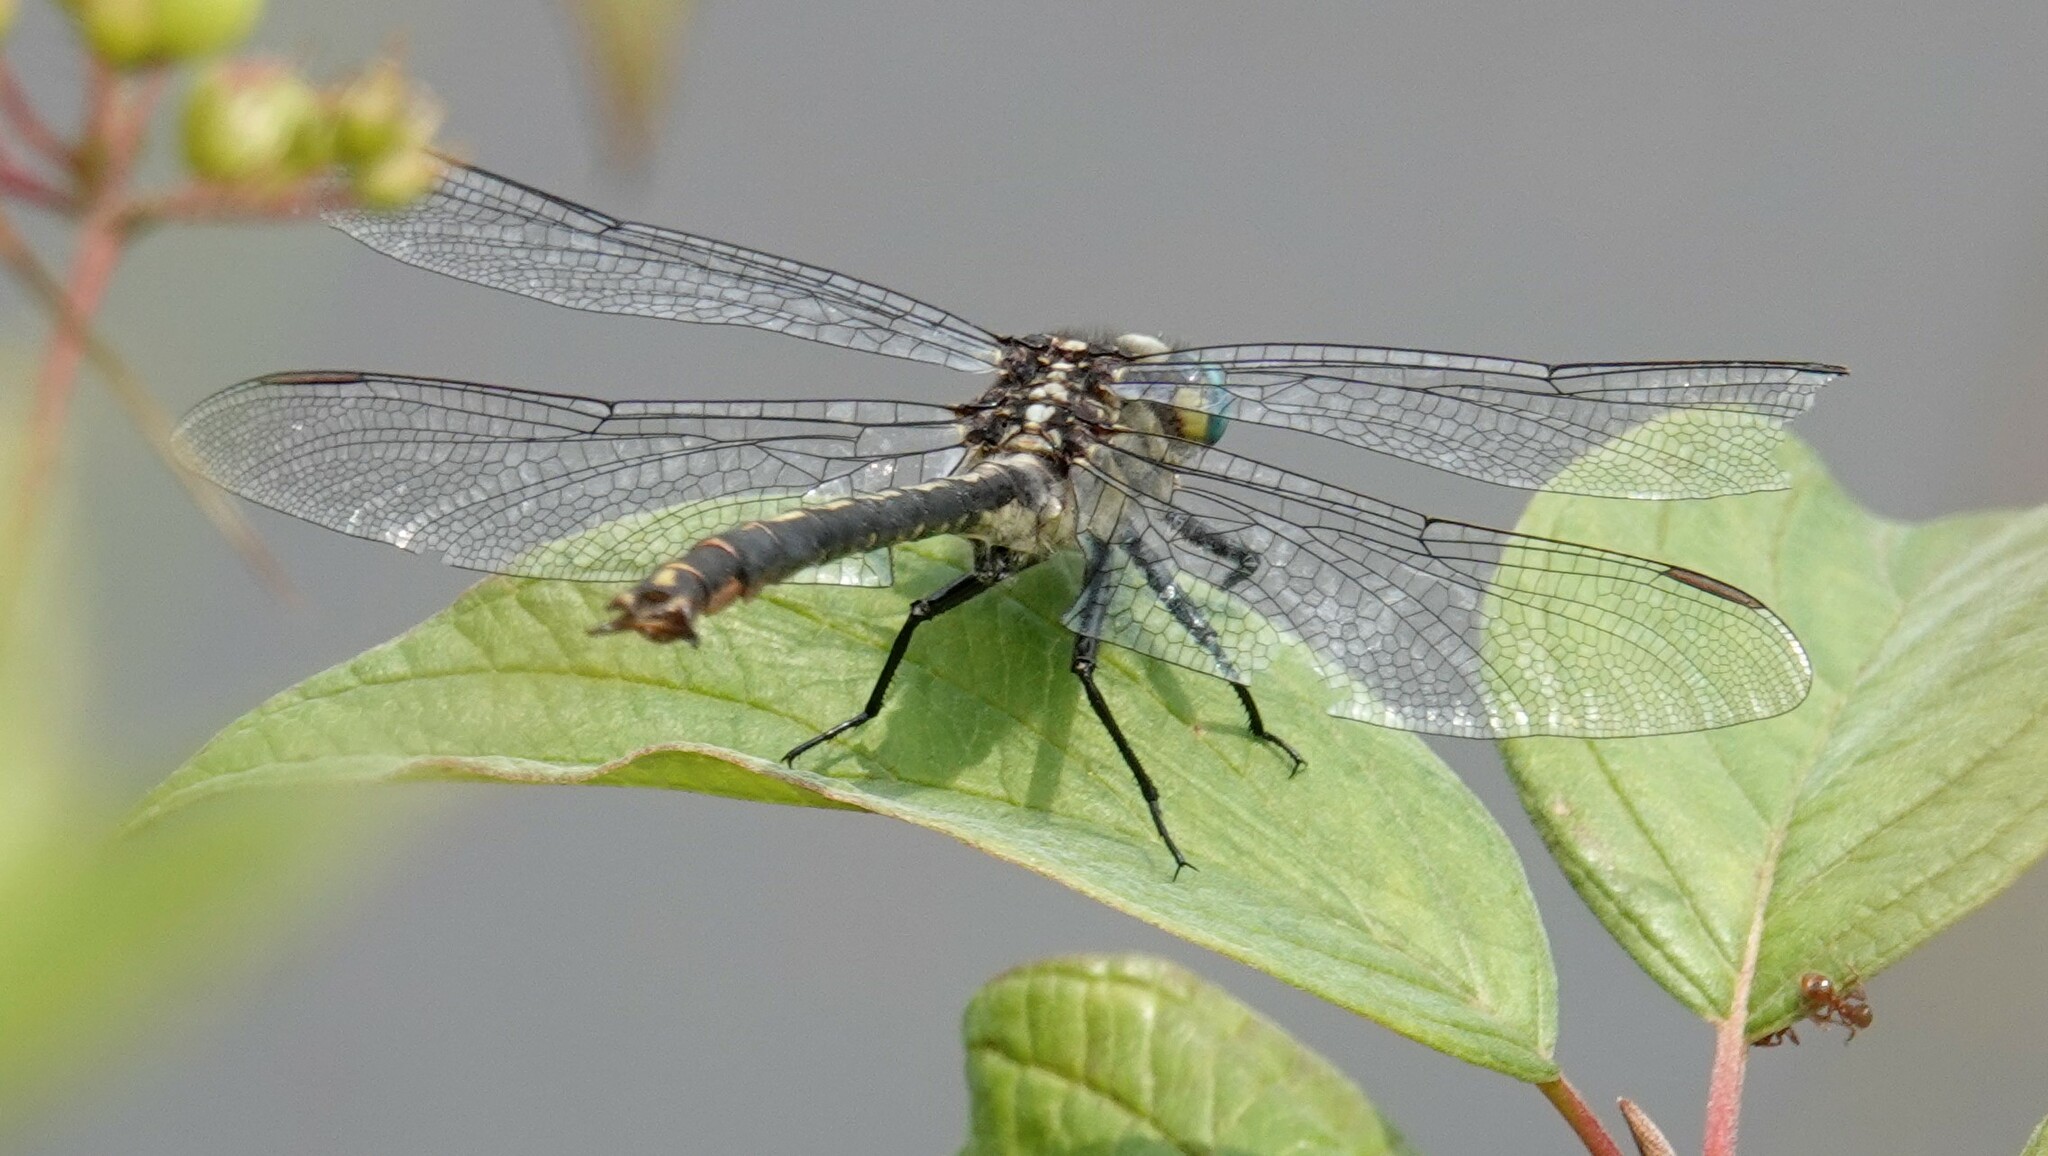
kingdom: Animalia
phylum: Arthropoda
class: Insecta
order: Odonata
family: Gomphidae
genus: Arigomphus
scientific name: Arigomphus cornutus
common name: Horned clubtail
